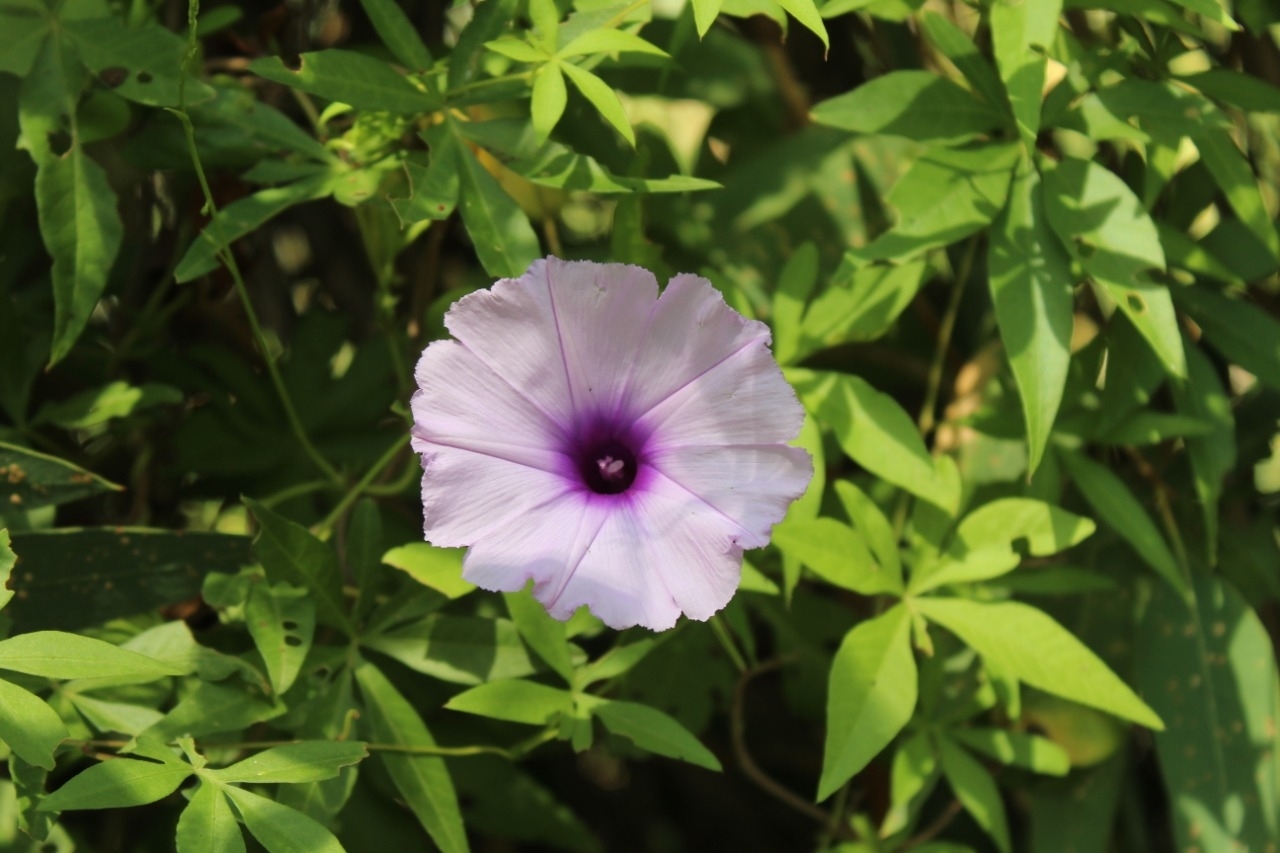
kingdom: Plantae
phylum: Tracheophyta
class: Magnoliopsida
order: Solanales
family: Convolvulaceae
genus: Ipomoea
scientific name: Ipomoea cairica
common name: Mile a minute vine
